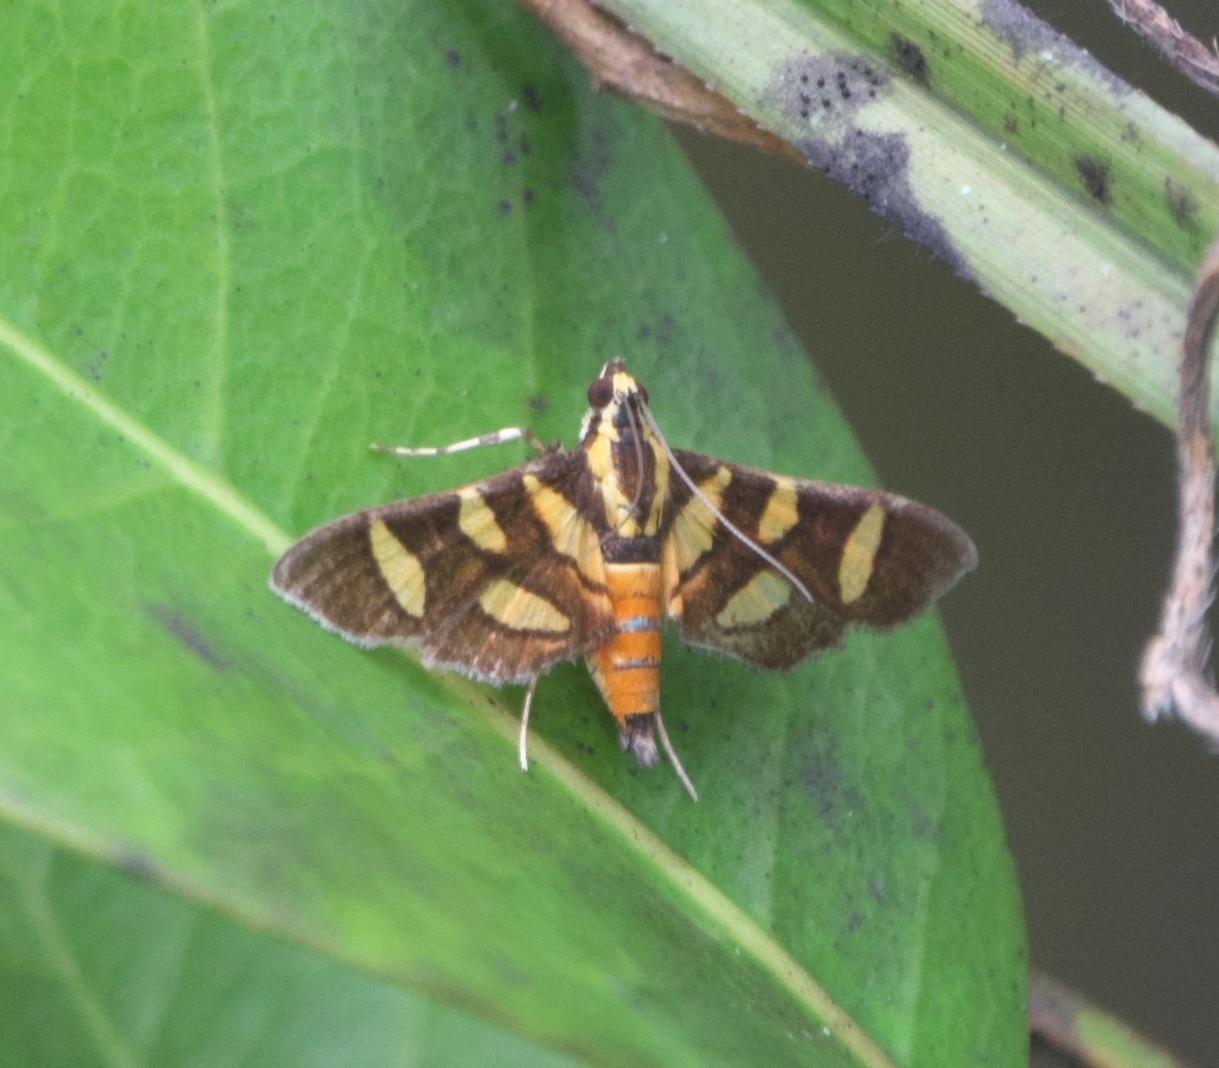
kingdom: Animalia
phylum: Arthropoda
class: Insecta
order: Lepidoptera
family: Crambidae
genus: Syngamia
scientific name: Syngamia florella
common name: Orange-spotted flower moth
